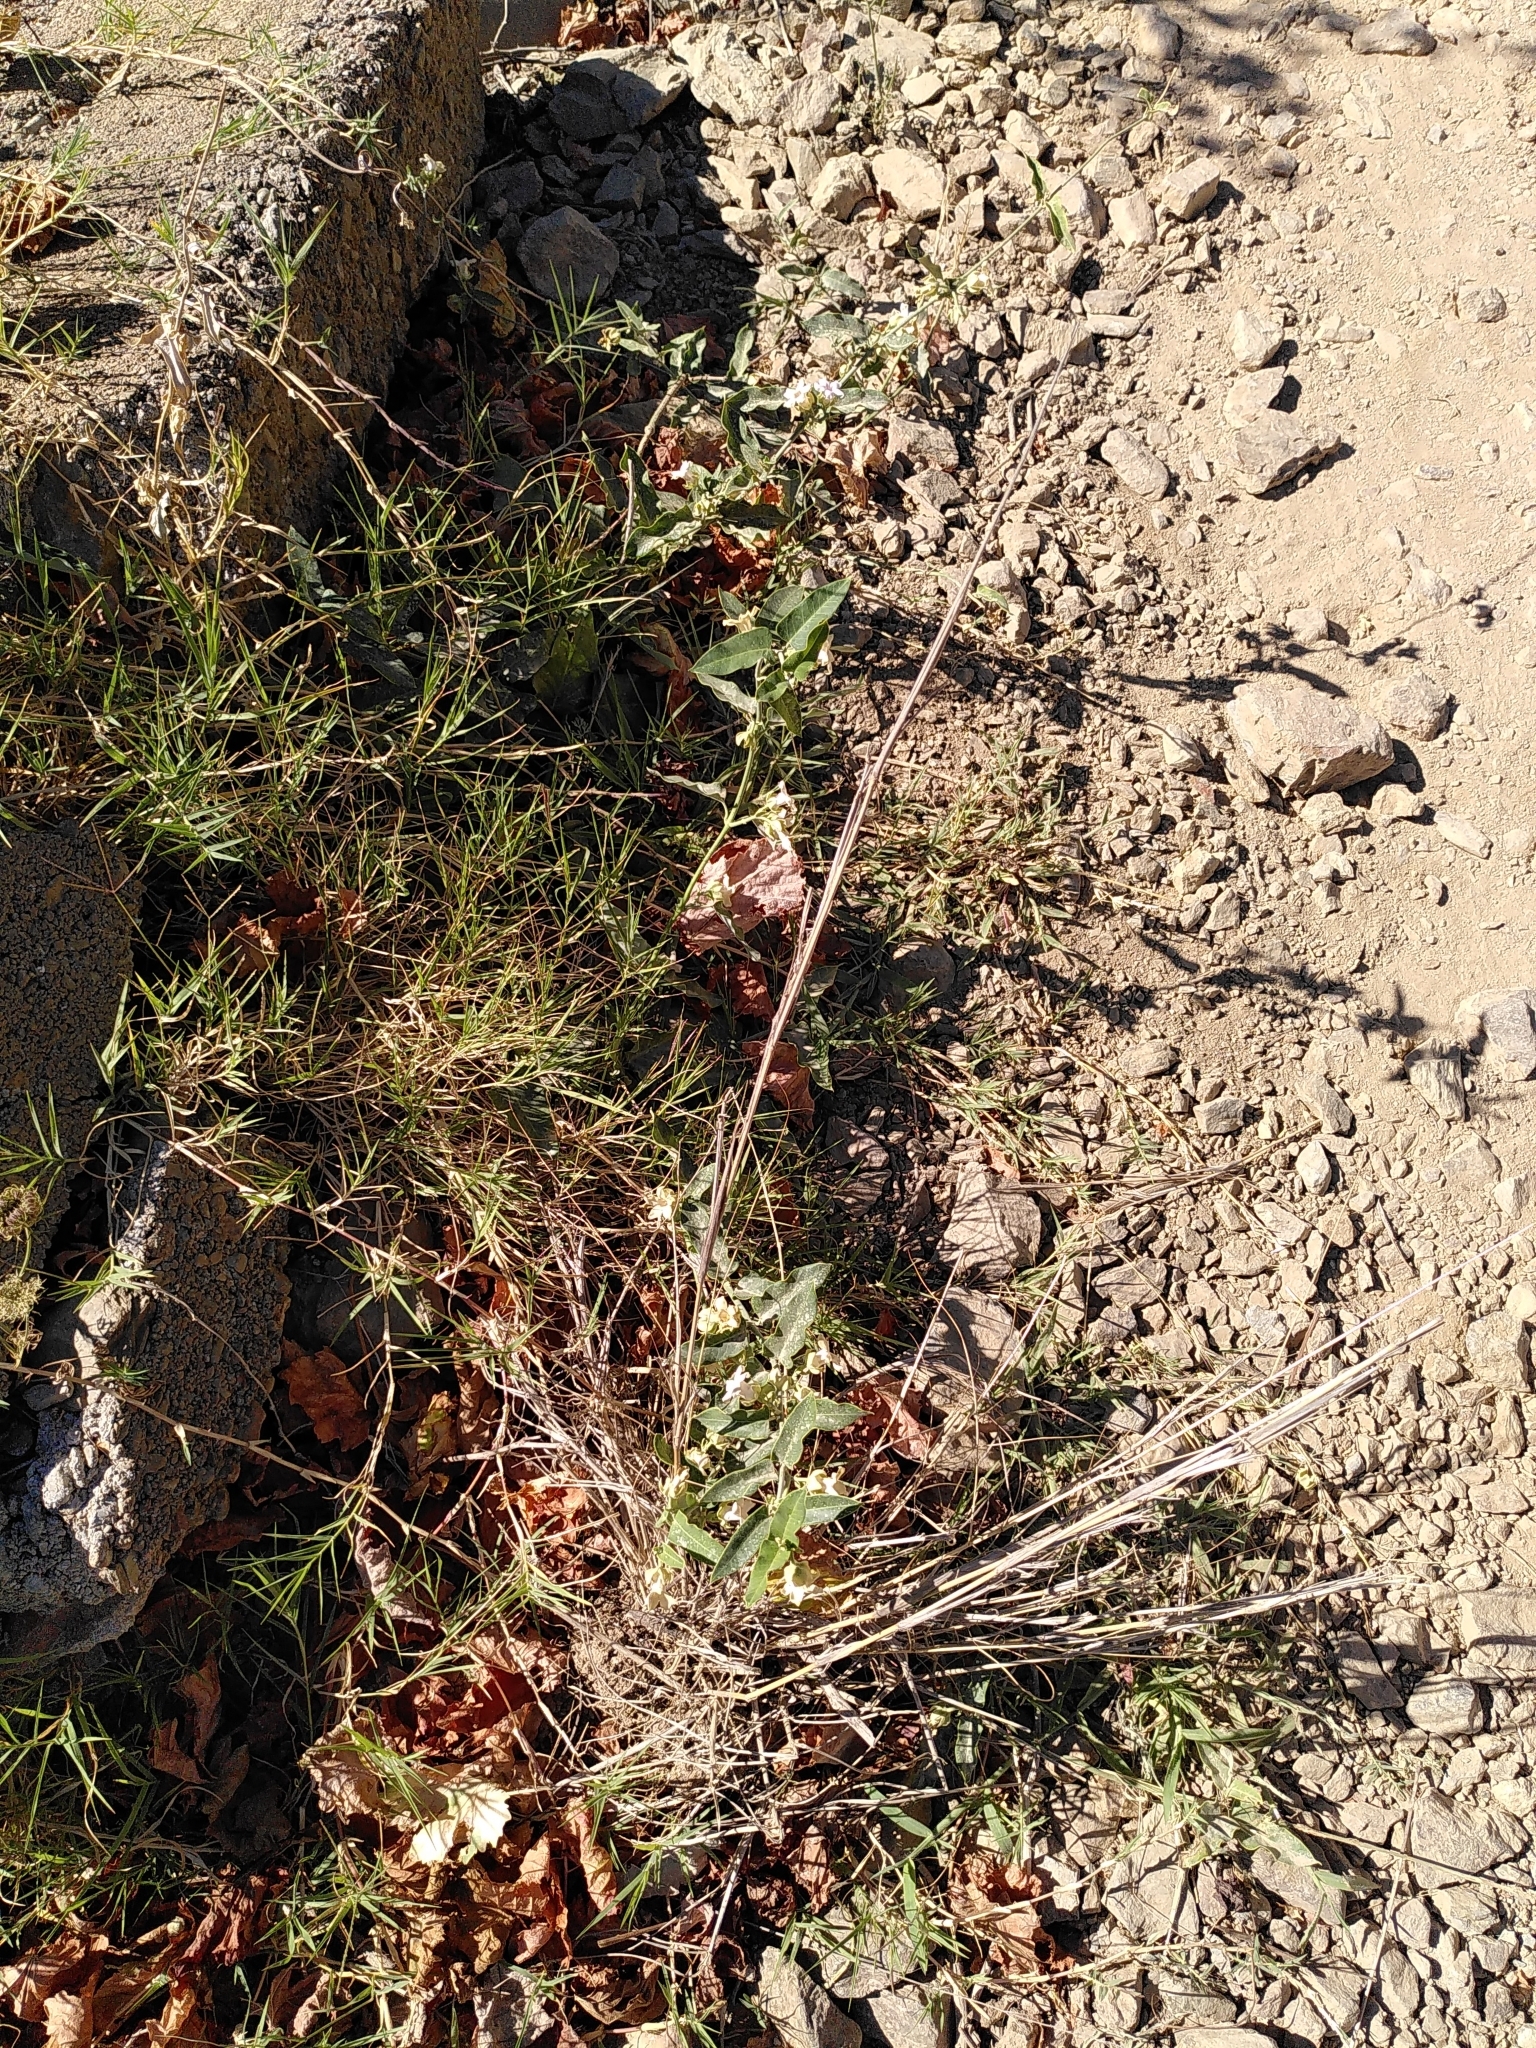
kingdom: Plantae
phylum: Tracheophyta
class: Magnoliopsida
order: Gentianales
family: Apocynaceae
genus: Araujia
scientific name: Araujia sericifera
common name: White bladderflower
